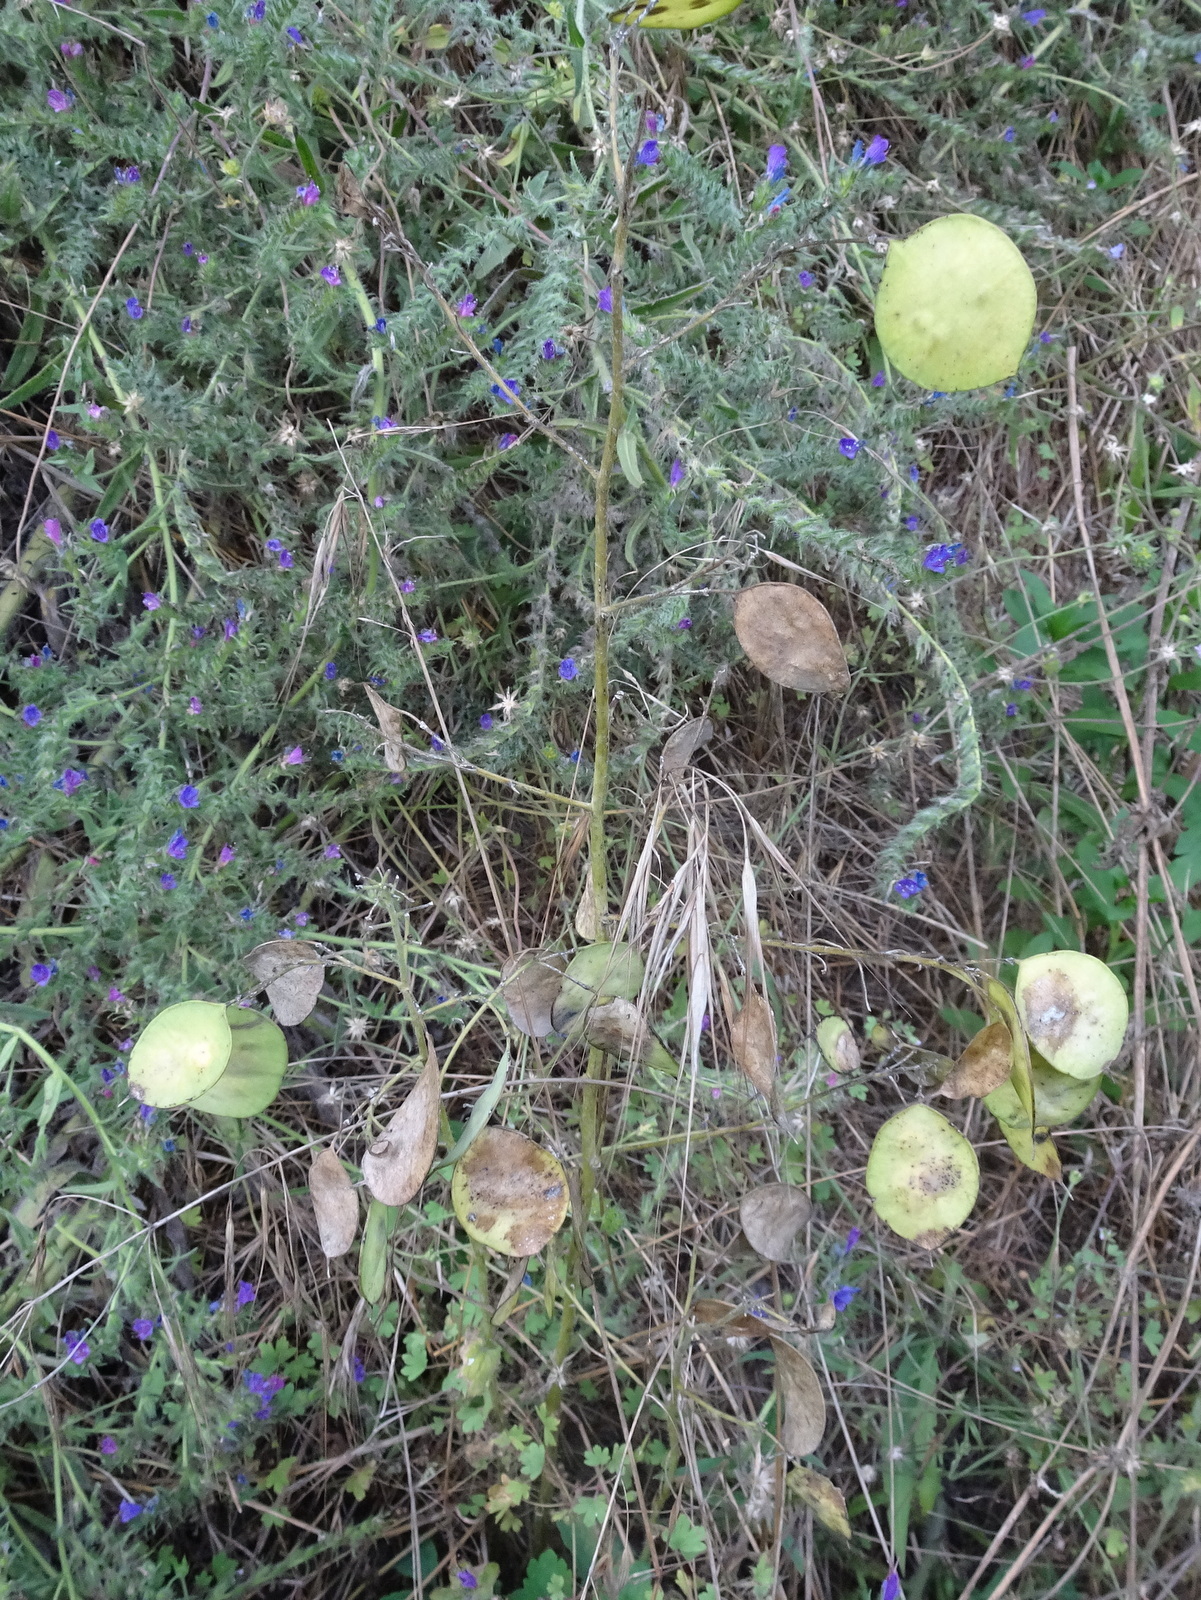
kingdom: Plantae
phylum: Tracheophyta
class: Magnoliopsida
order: Brassicales
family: Brassicaceae
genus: Lunaria
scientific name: Lunaria annua
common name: Honesty
